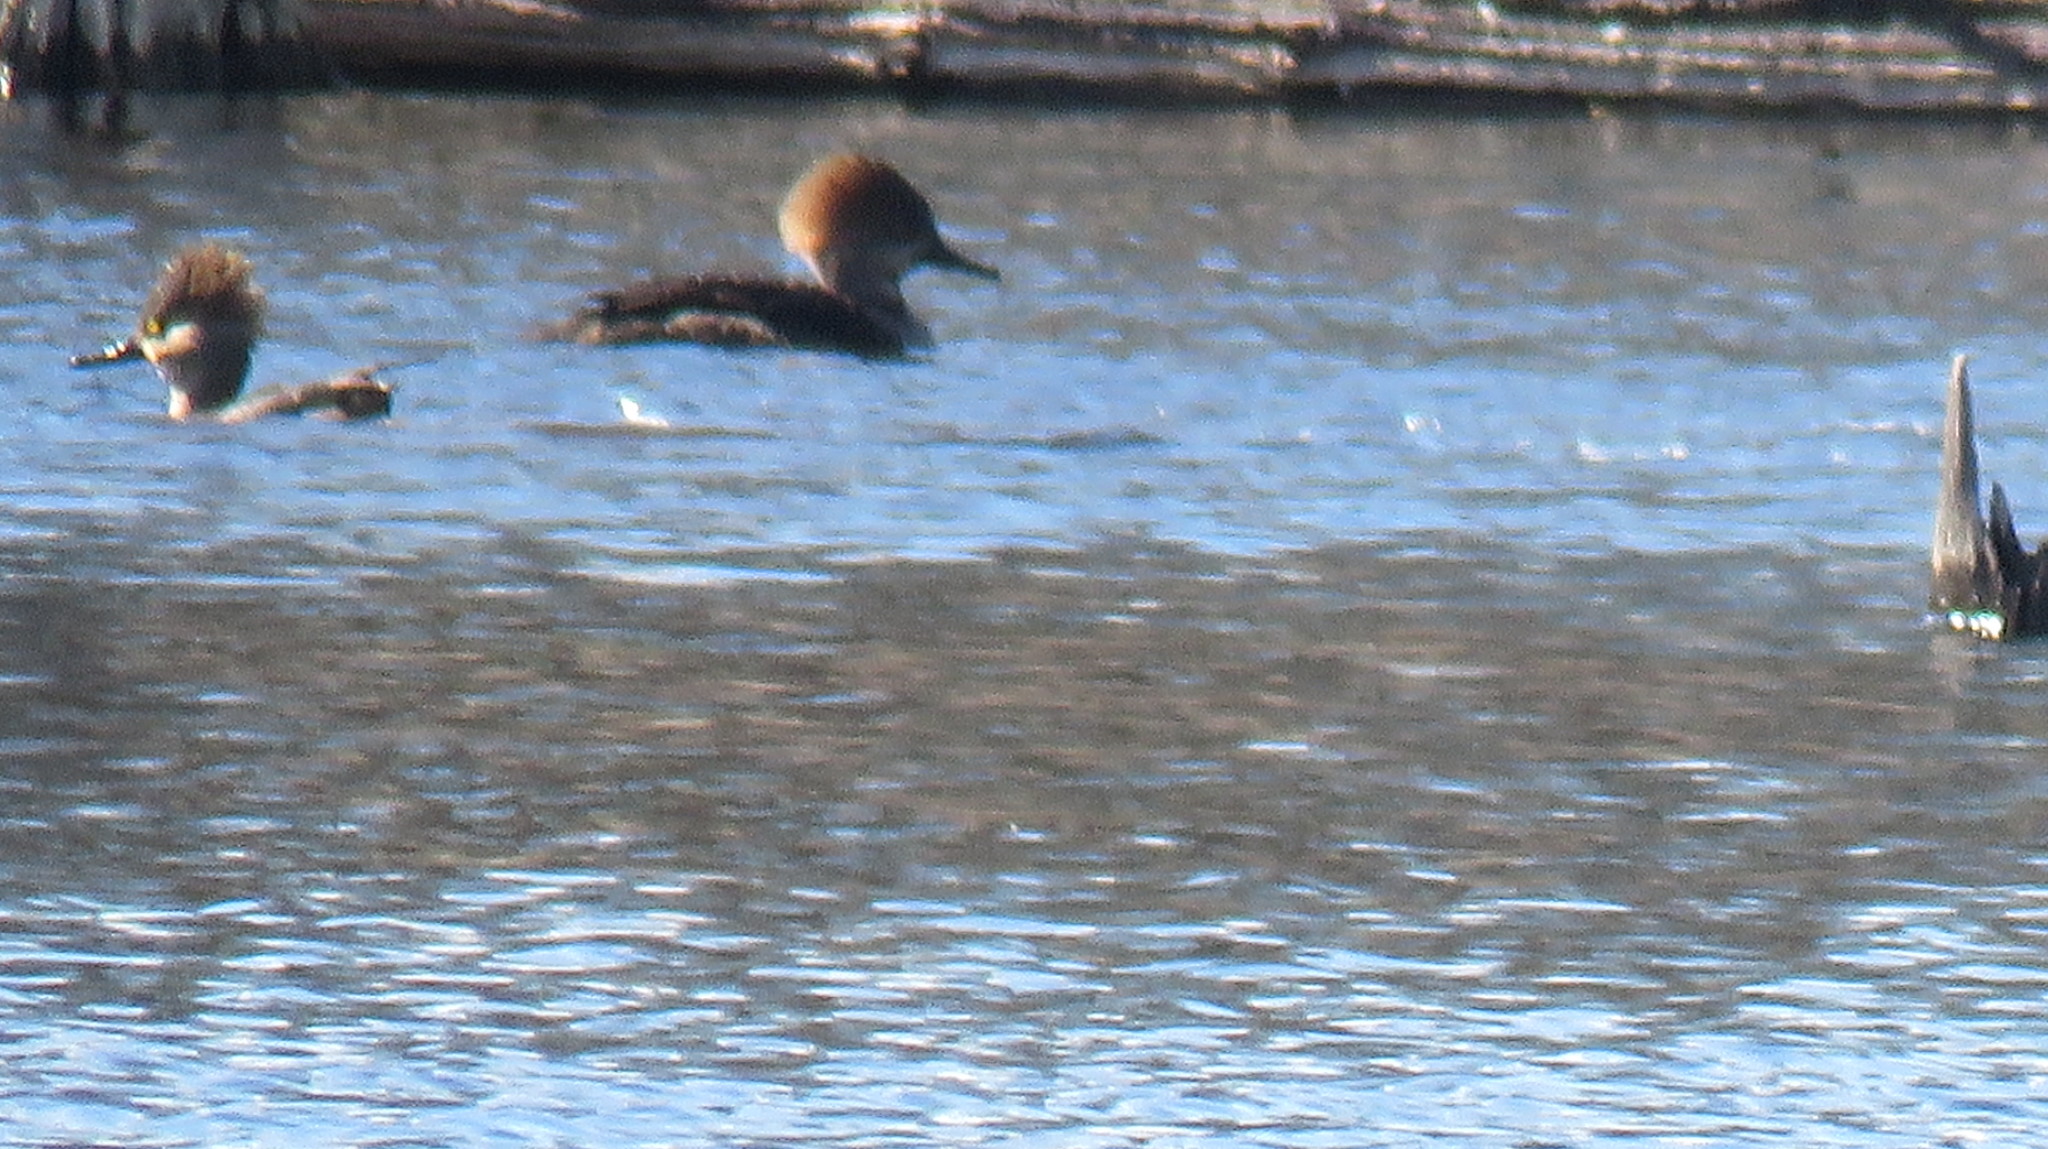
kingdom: Animalia
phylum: Chordata
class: Aves
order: Anseriformes
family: Anatidae
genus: Lophodytes
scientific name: Lophodytes cucullatus
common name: Hooded merganser
